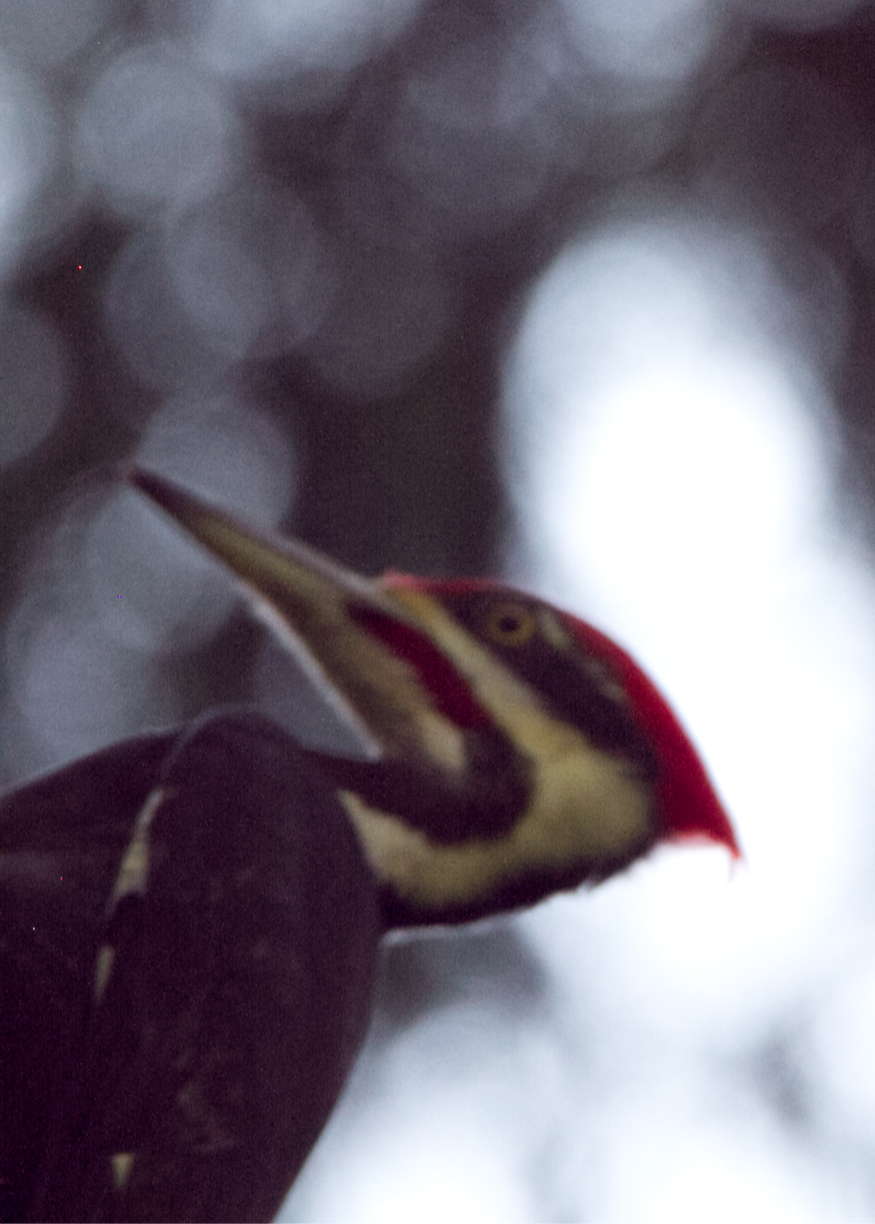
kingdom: Animalia
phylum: Chordata
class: Aves
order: Piciformes
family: Picidae
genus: Dryocopus
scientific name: Dryocopus pileatus
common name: Pileated woodpecker
